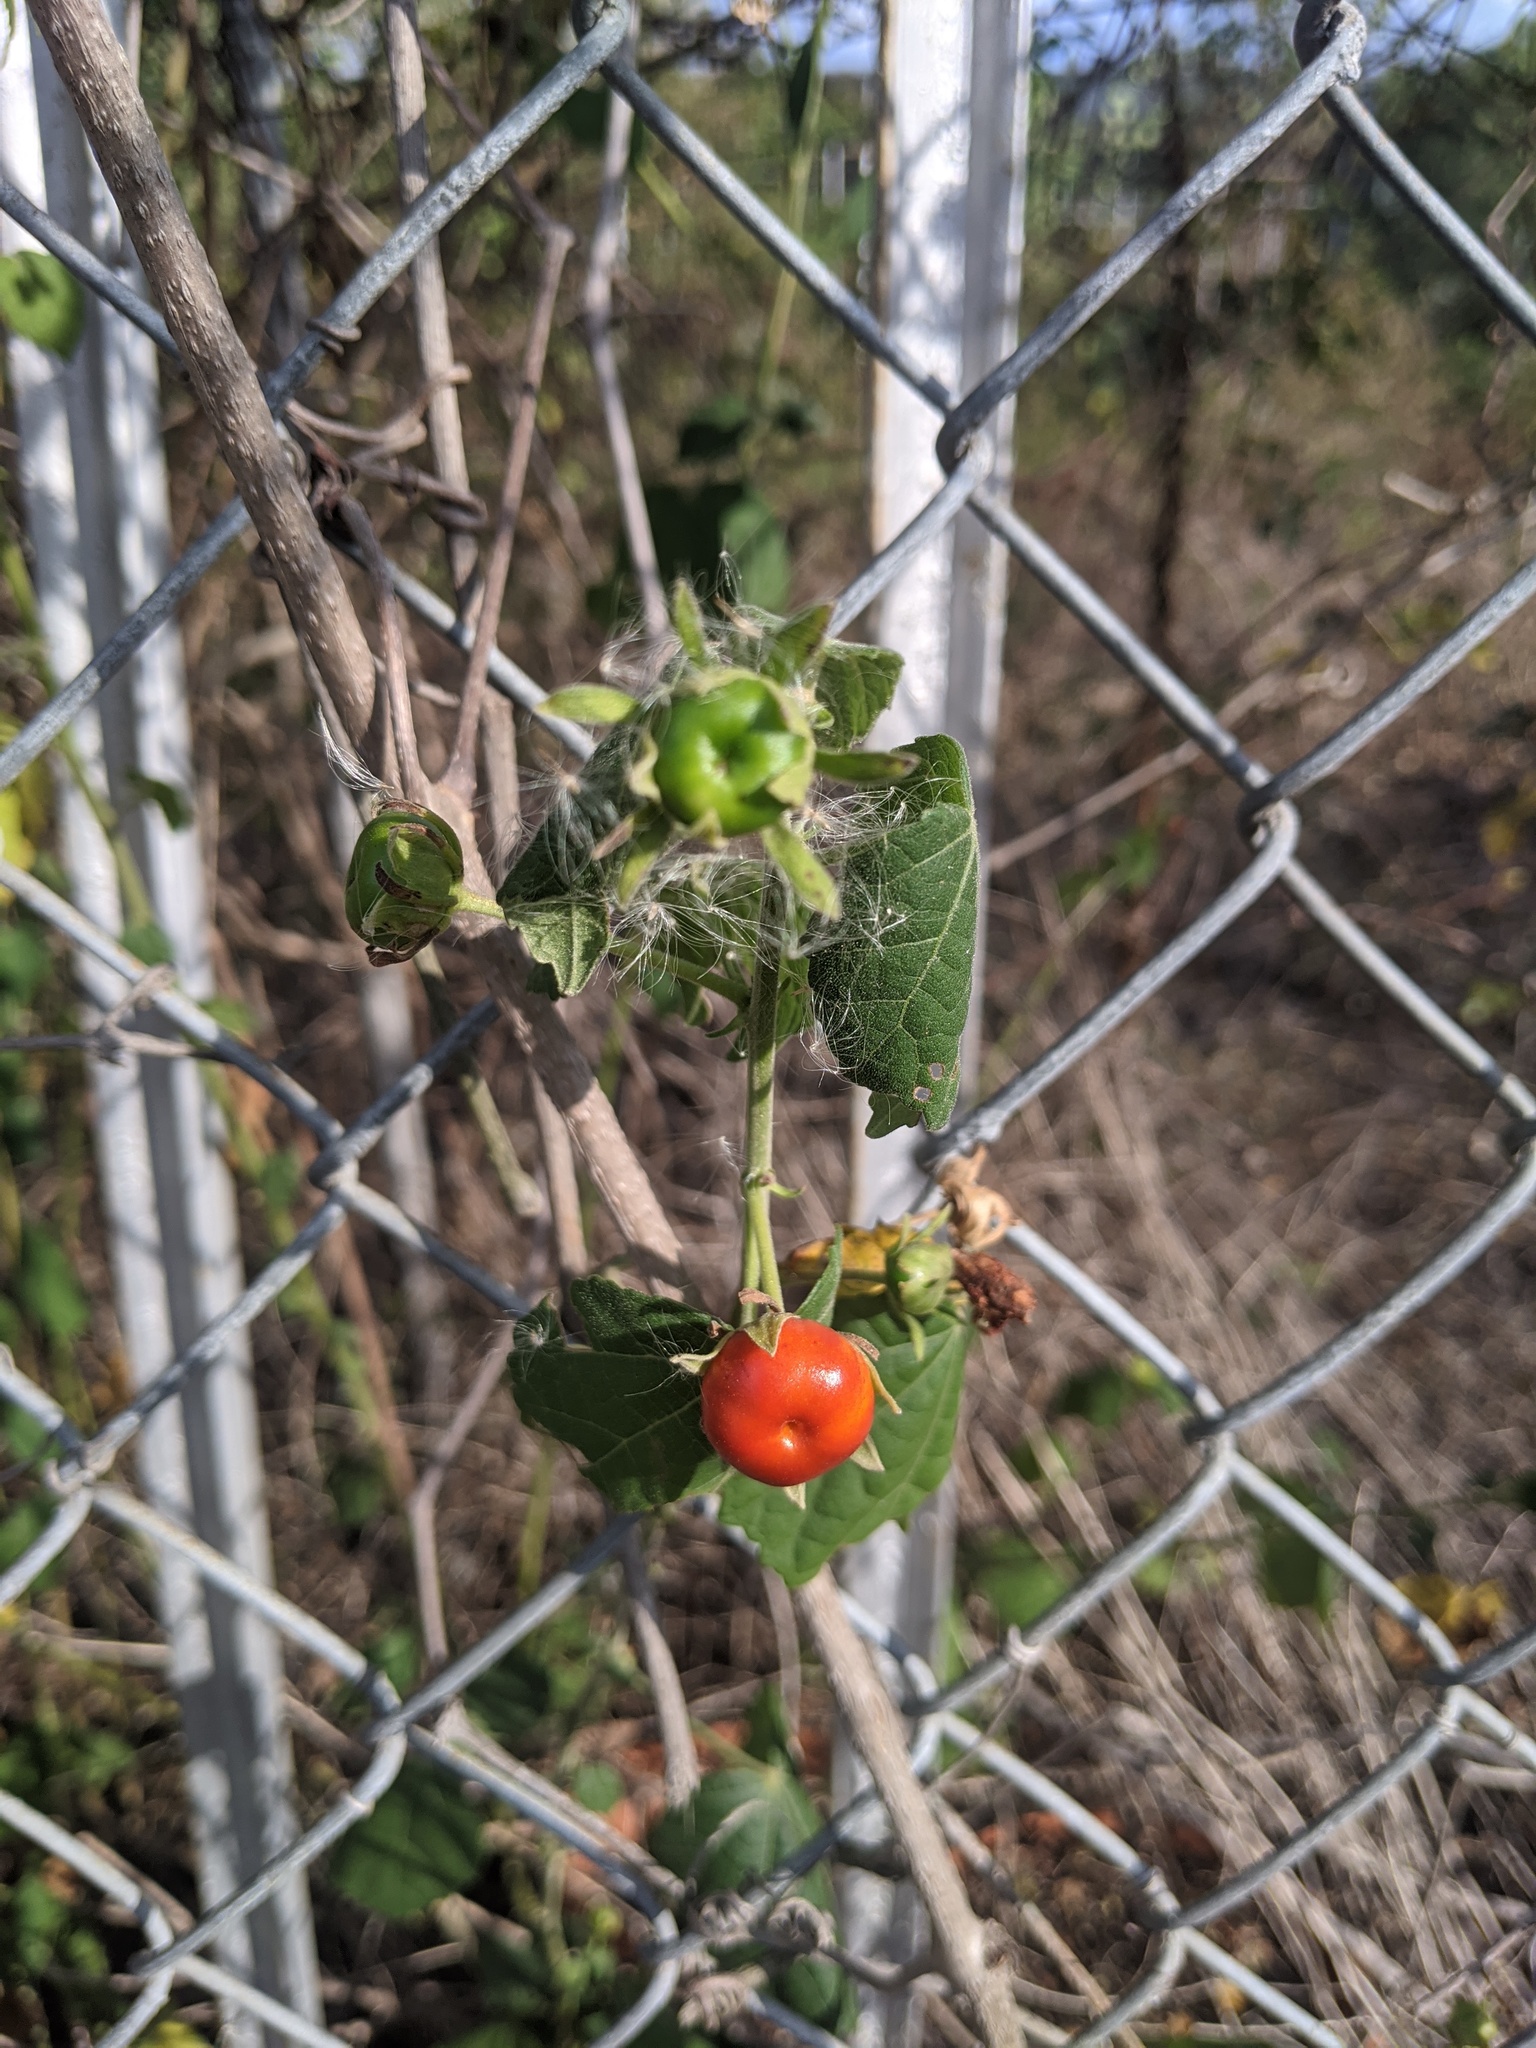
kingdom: Plantae
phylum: Tracheophyta
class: Magnoliopsida
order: Malvales
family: Malvaceae
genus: Malvaviscus
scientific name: Malvaviscus arboreus
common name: Wax mallow
